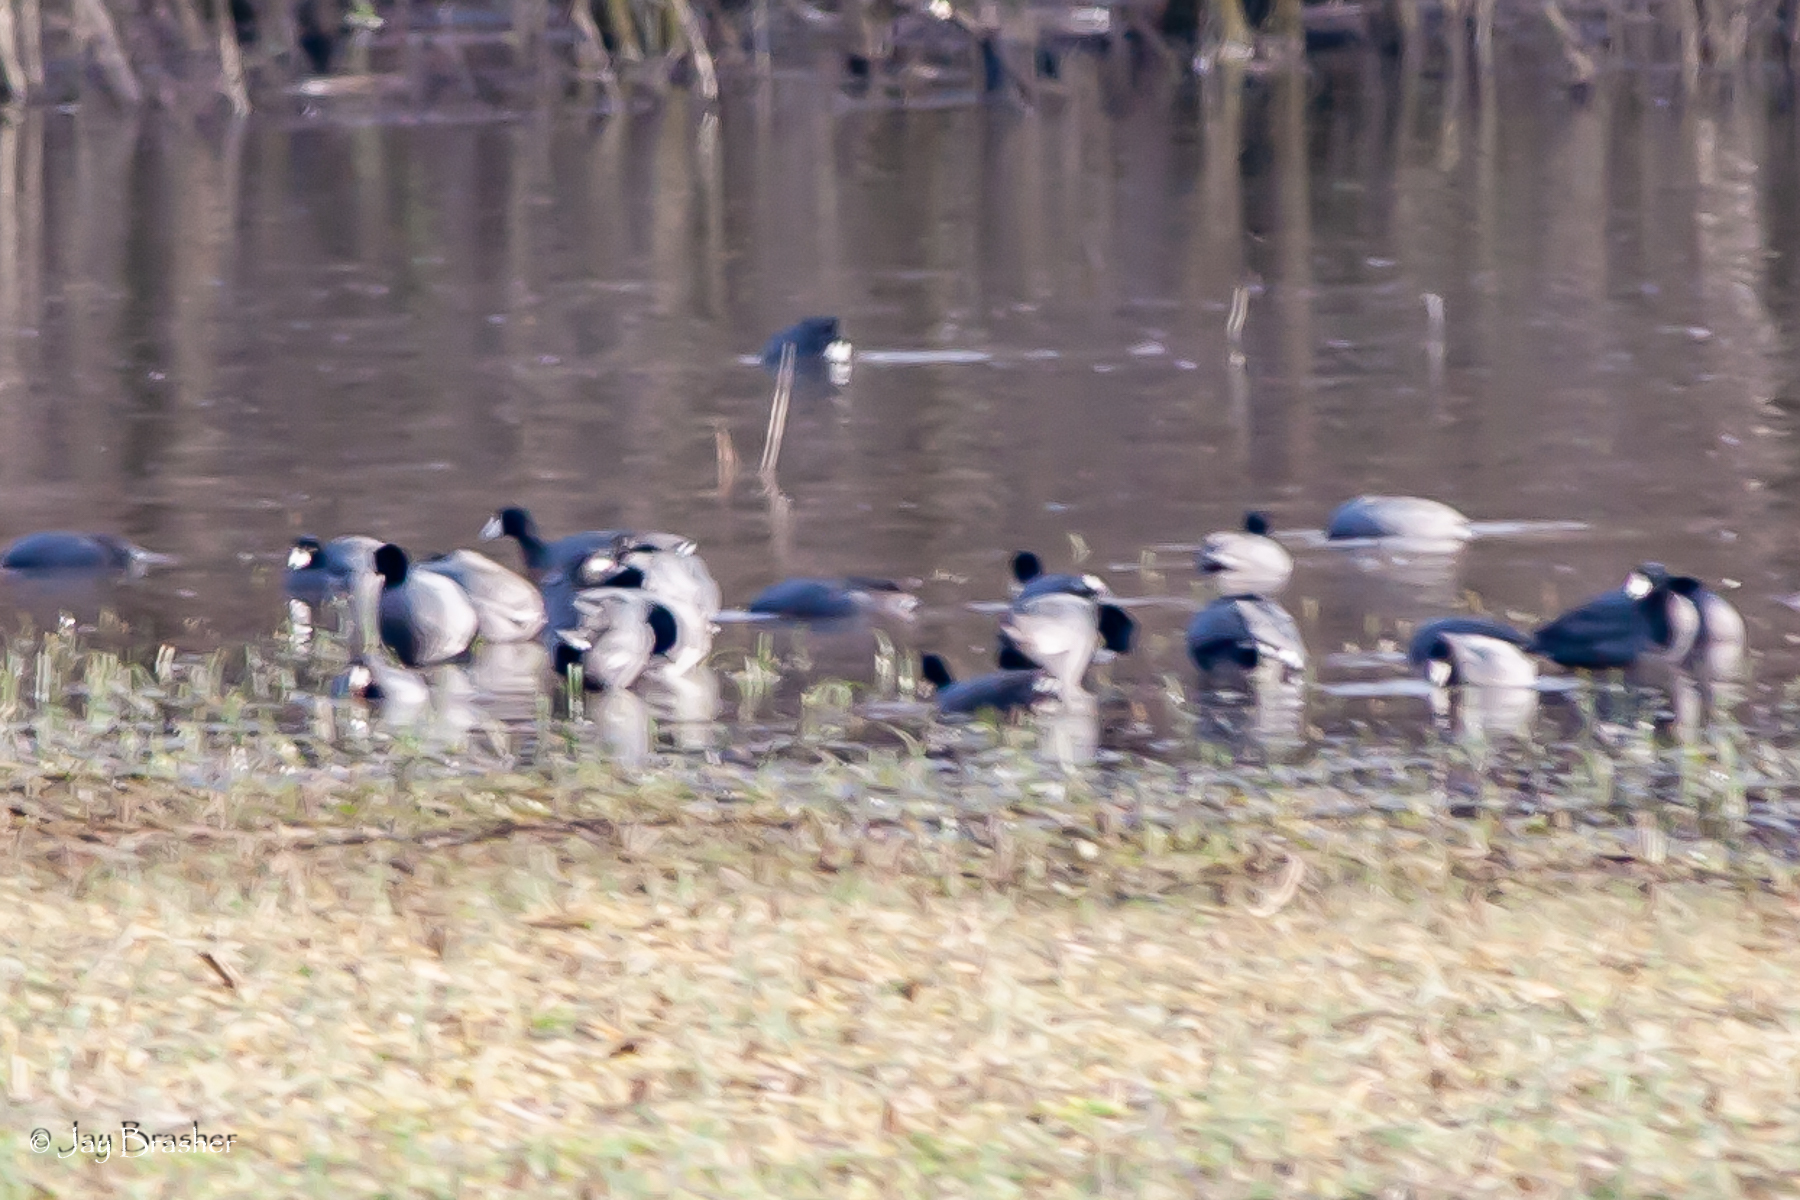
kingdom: Animalia
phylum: Chordata
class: Aves
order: Gruiformes
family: Rallidae
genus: Fulica
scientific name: Fulica americana
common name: American coot
